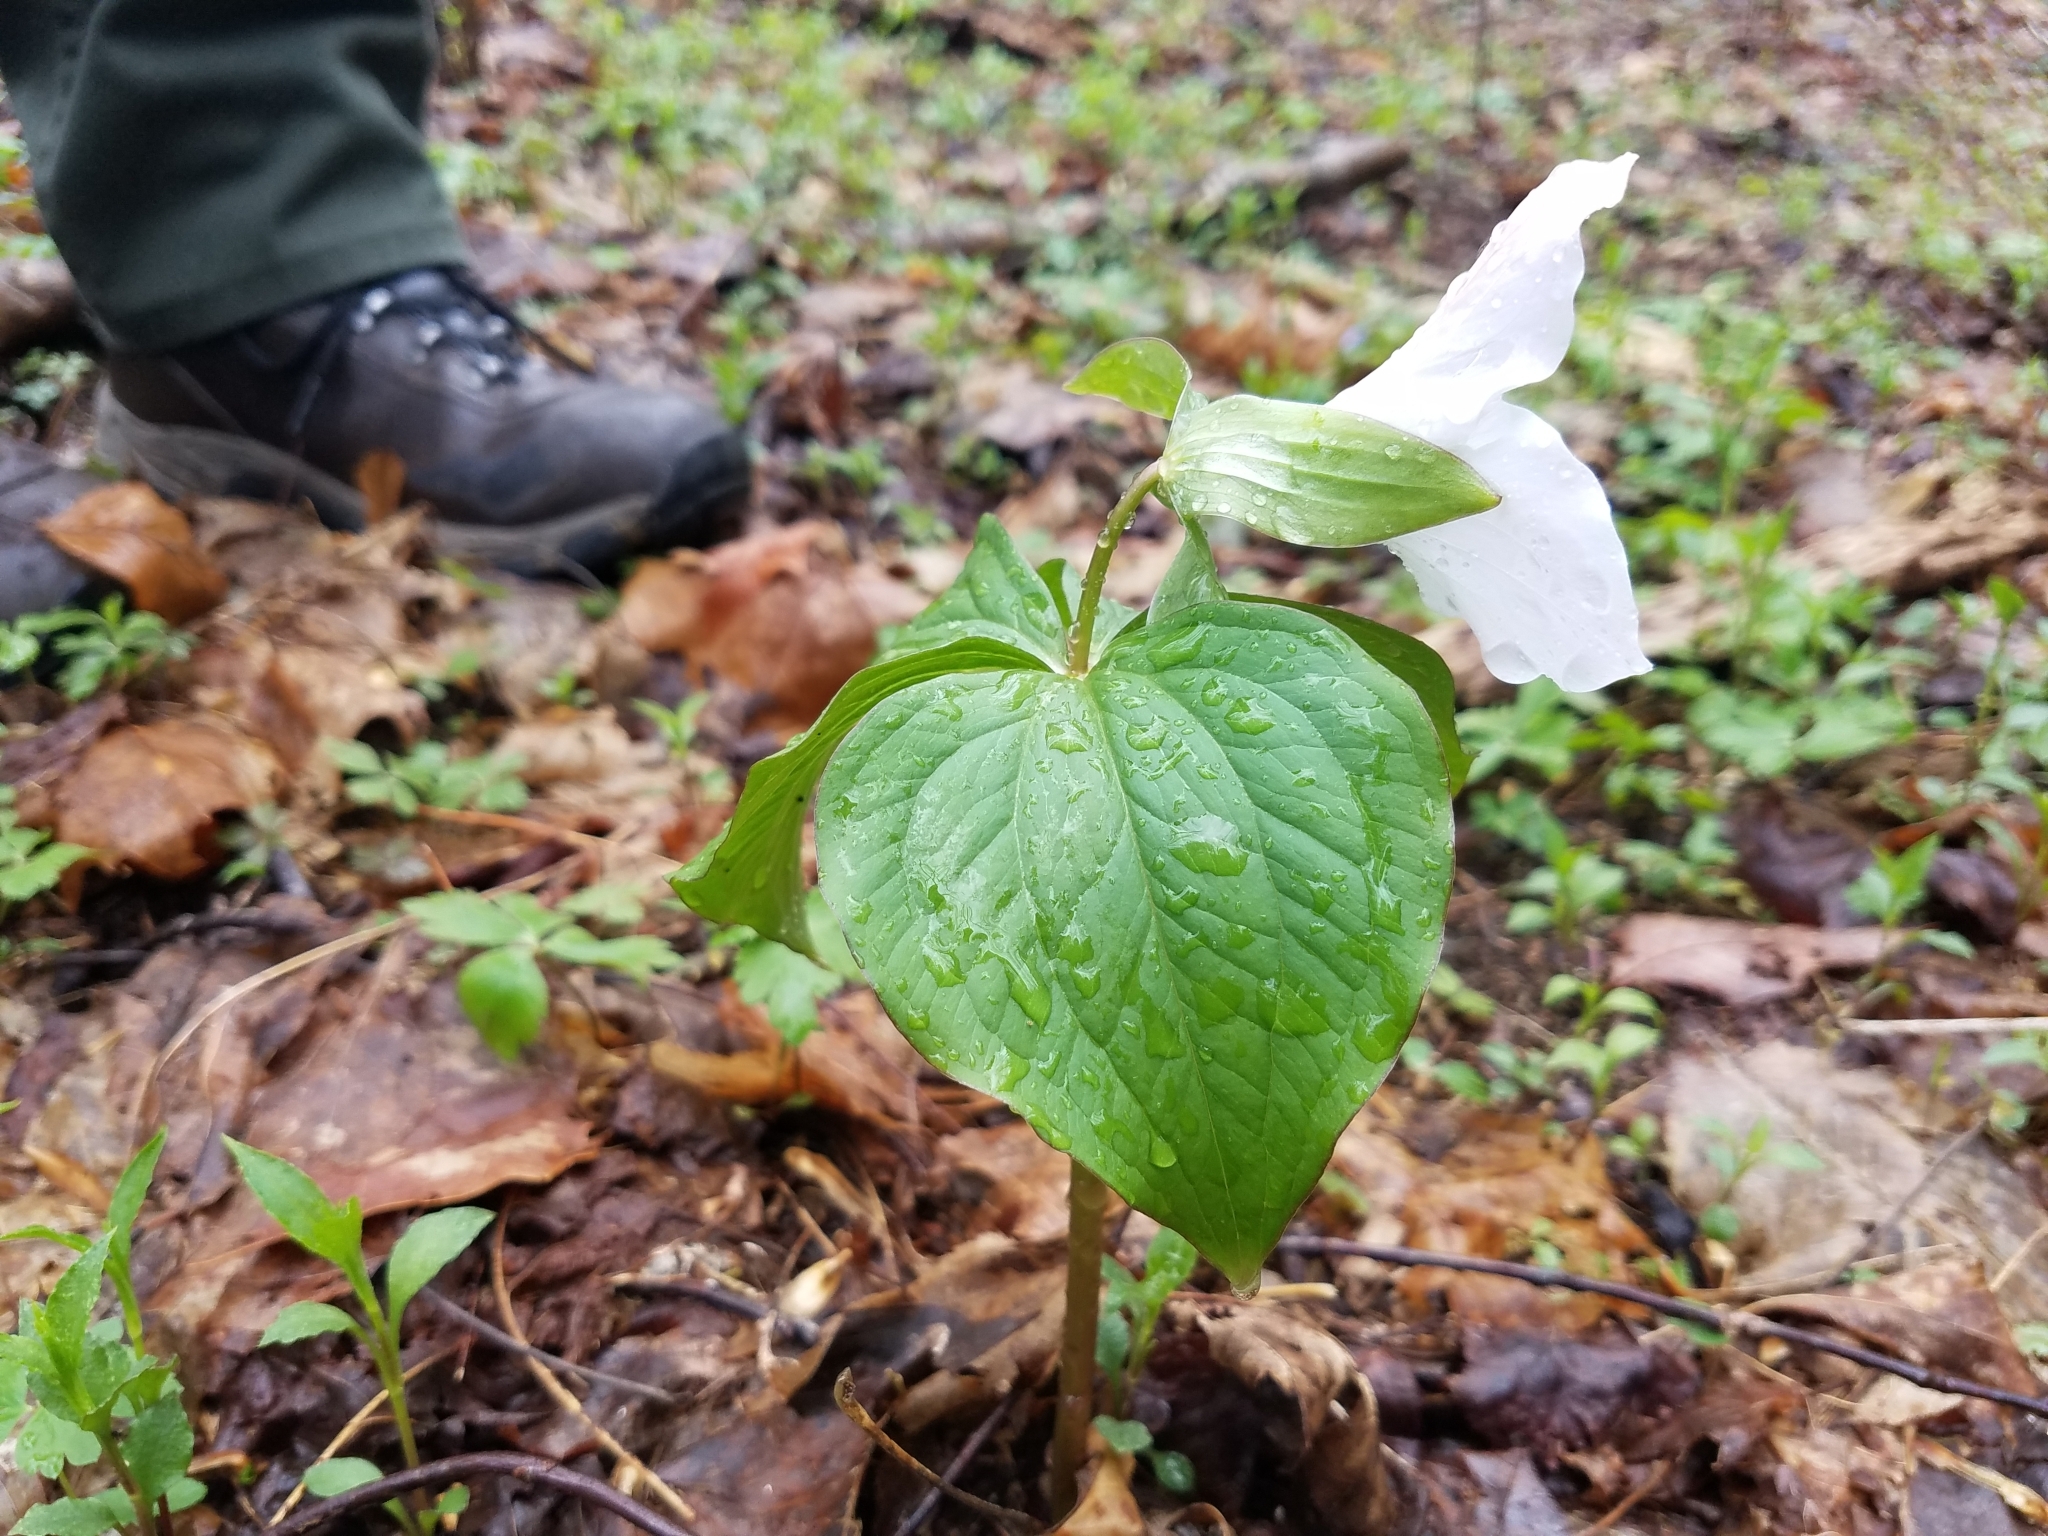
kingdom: Plantae
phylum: Tracheophyta
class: Liliopsida
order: Liliales
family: Melanthiaceae
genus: Trillium
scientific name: Trillium grandiflorum
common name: Great white trillium
